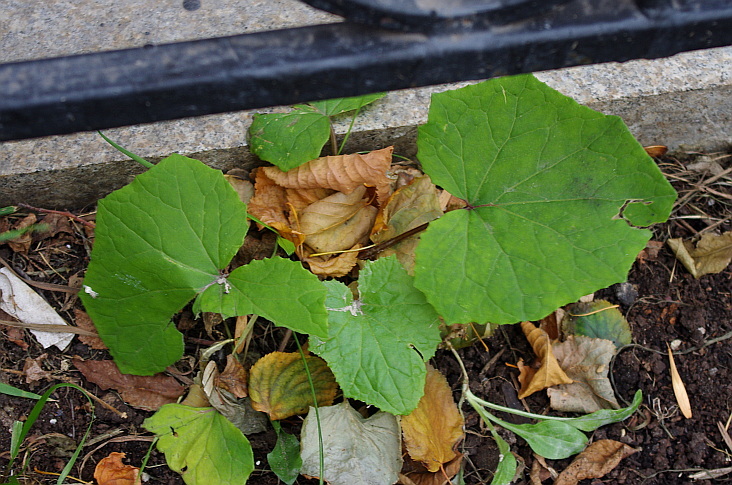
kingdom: Plantae
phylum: Tracheophyta
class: Magnoliopsida
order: Asterales
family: Asteraceae
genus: Tussilago
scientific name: Tussilago farfara
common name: Coltsfoot
